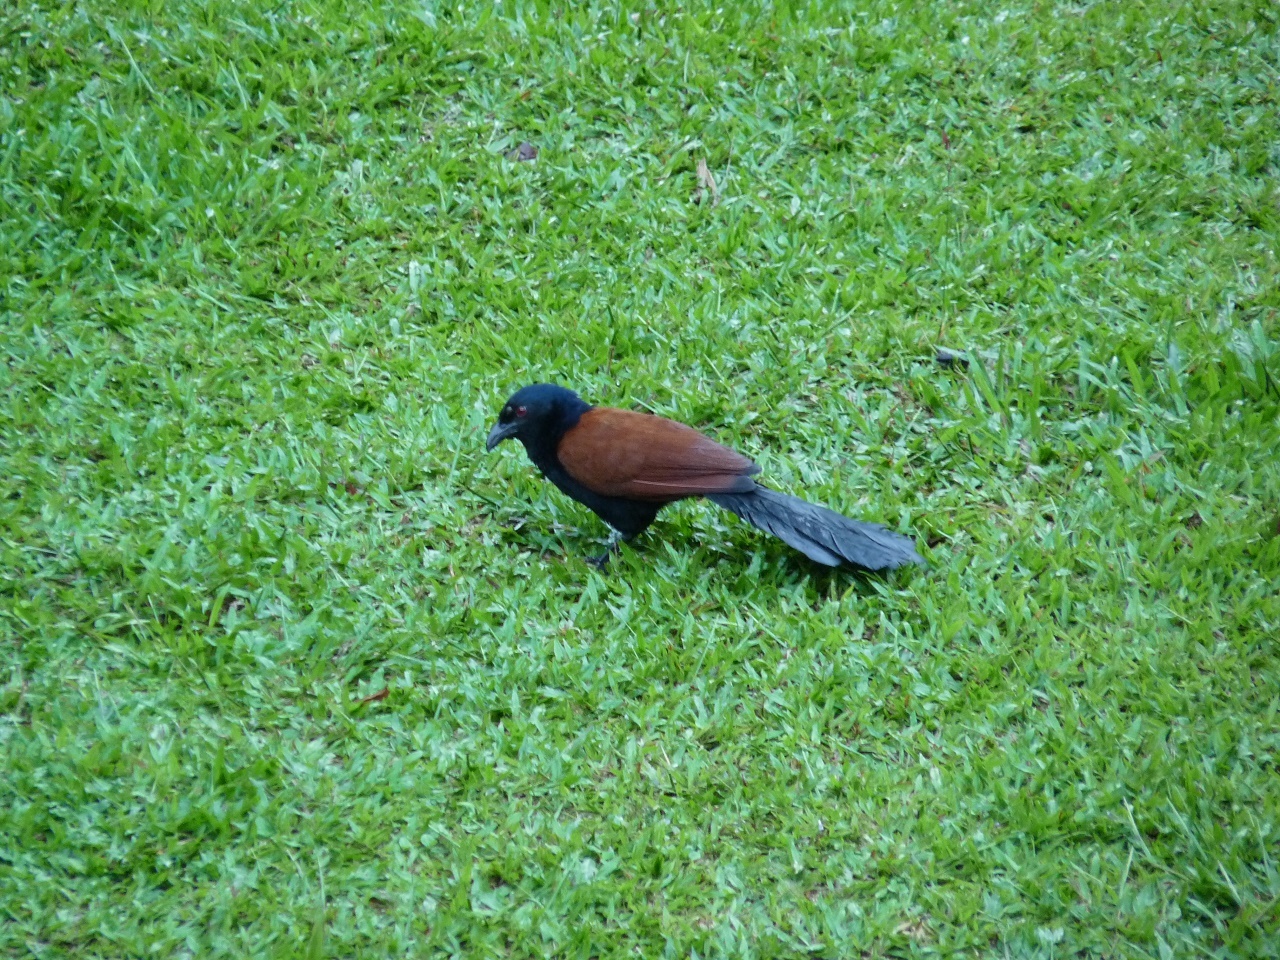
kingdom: Animalia
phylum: Chordata
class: Aves
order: Cuculiformes
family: Cuculidae
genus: Centropus
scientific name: Centropus sinensis
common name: Greater coucal
